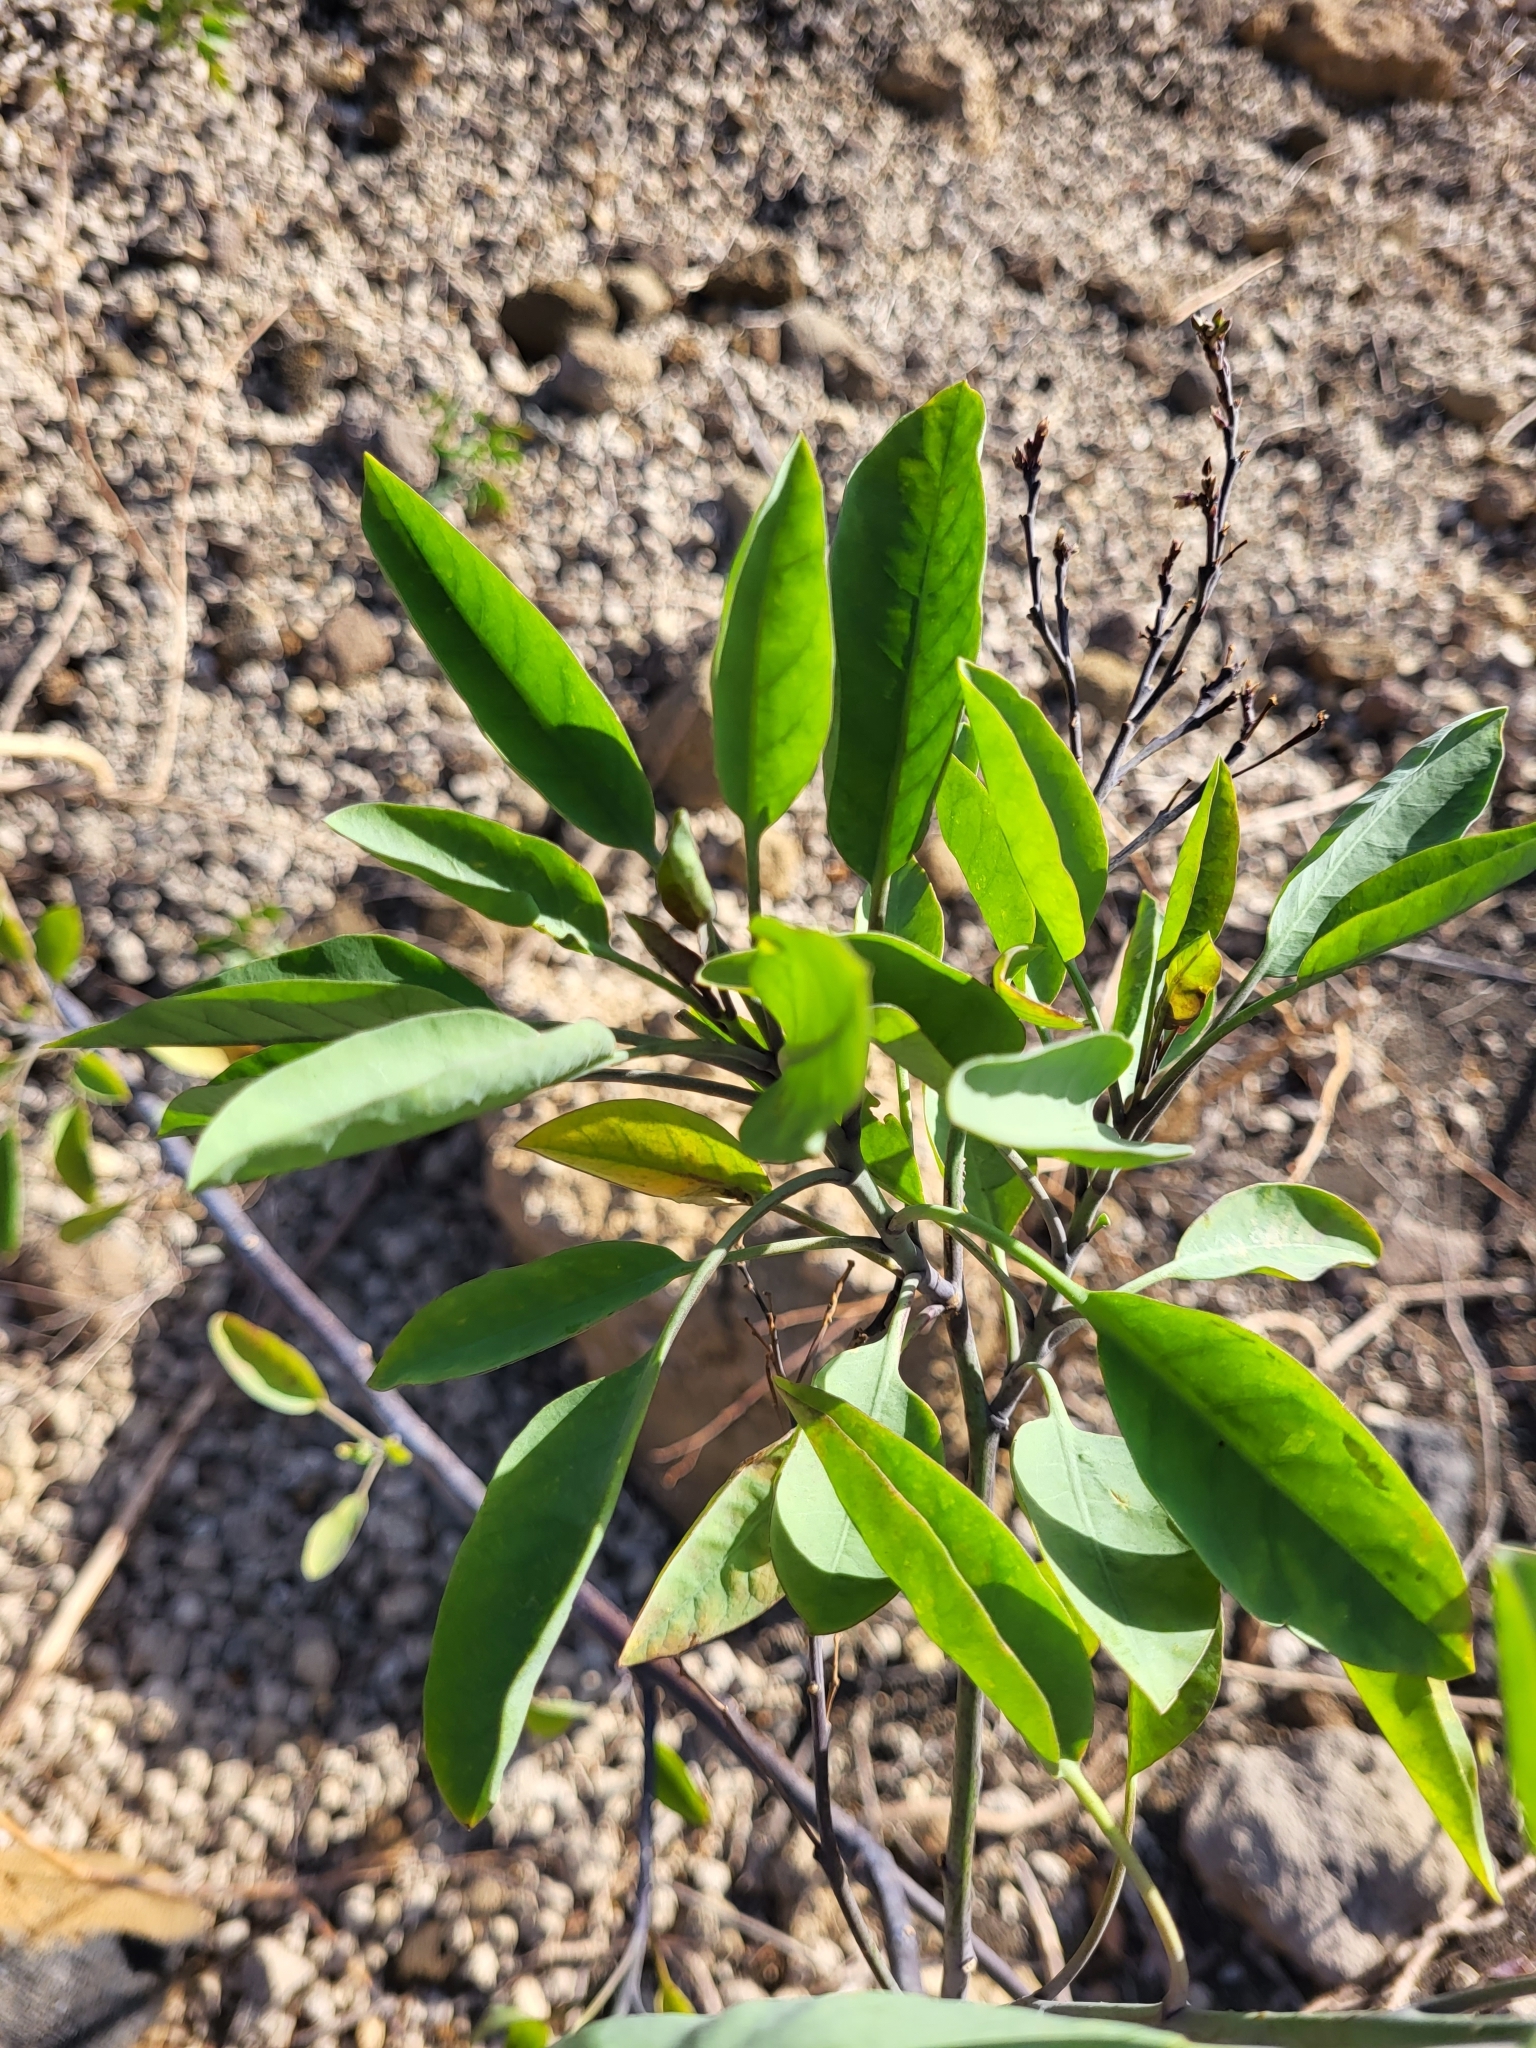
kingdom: Plantae
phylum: Tracheophyta
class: Magnoliopsida
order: Solanales
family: Solanaceae
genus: Nicotiana
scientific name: Nicotiana glauca
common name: Tree tobacco
